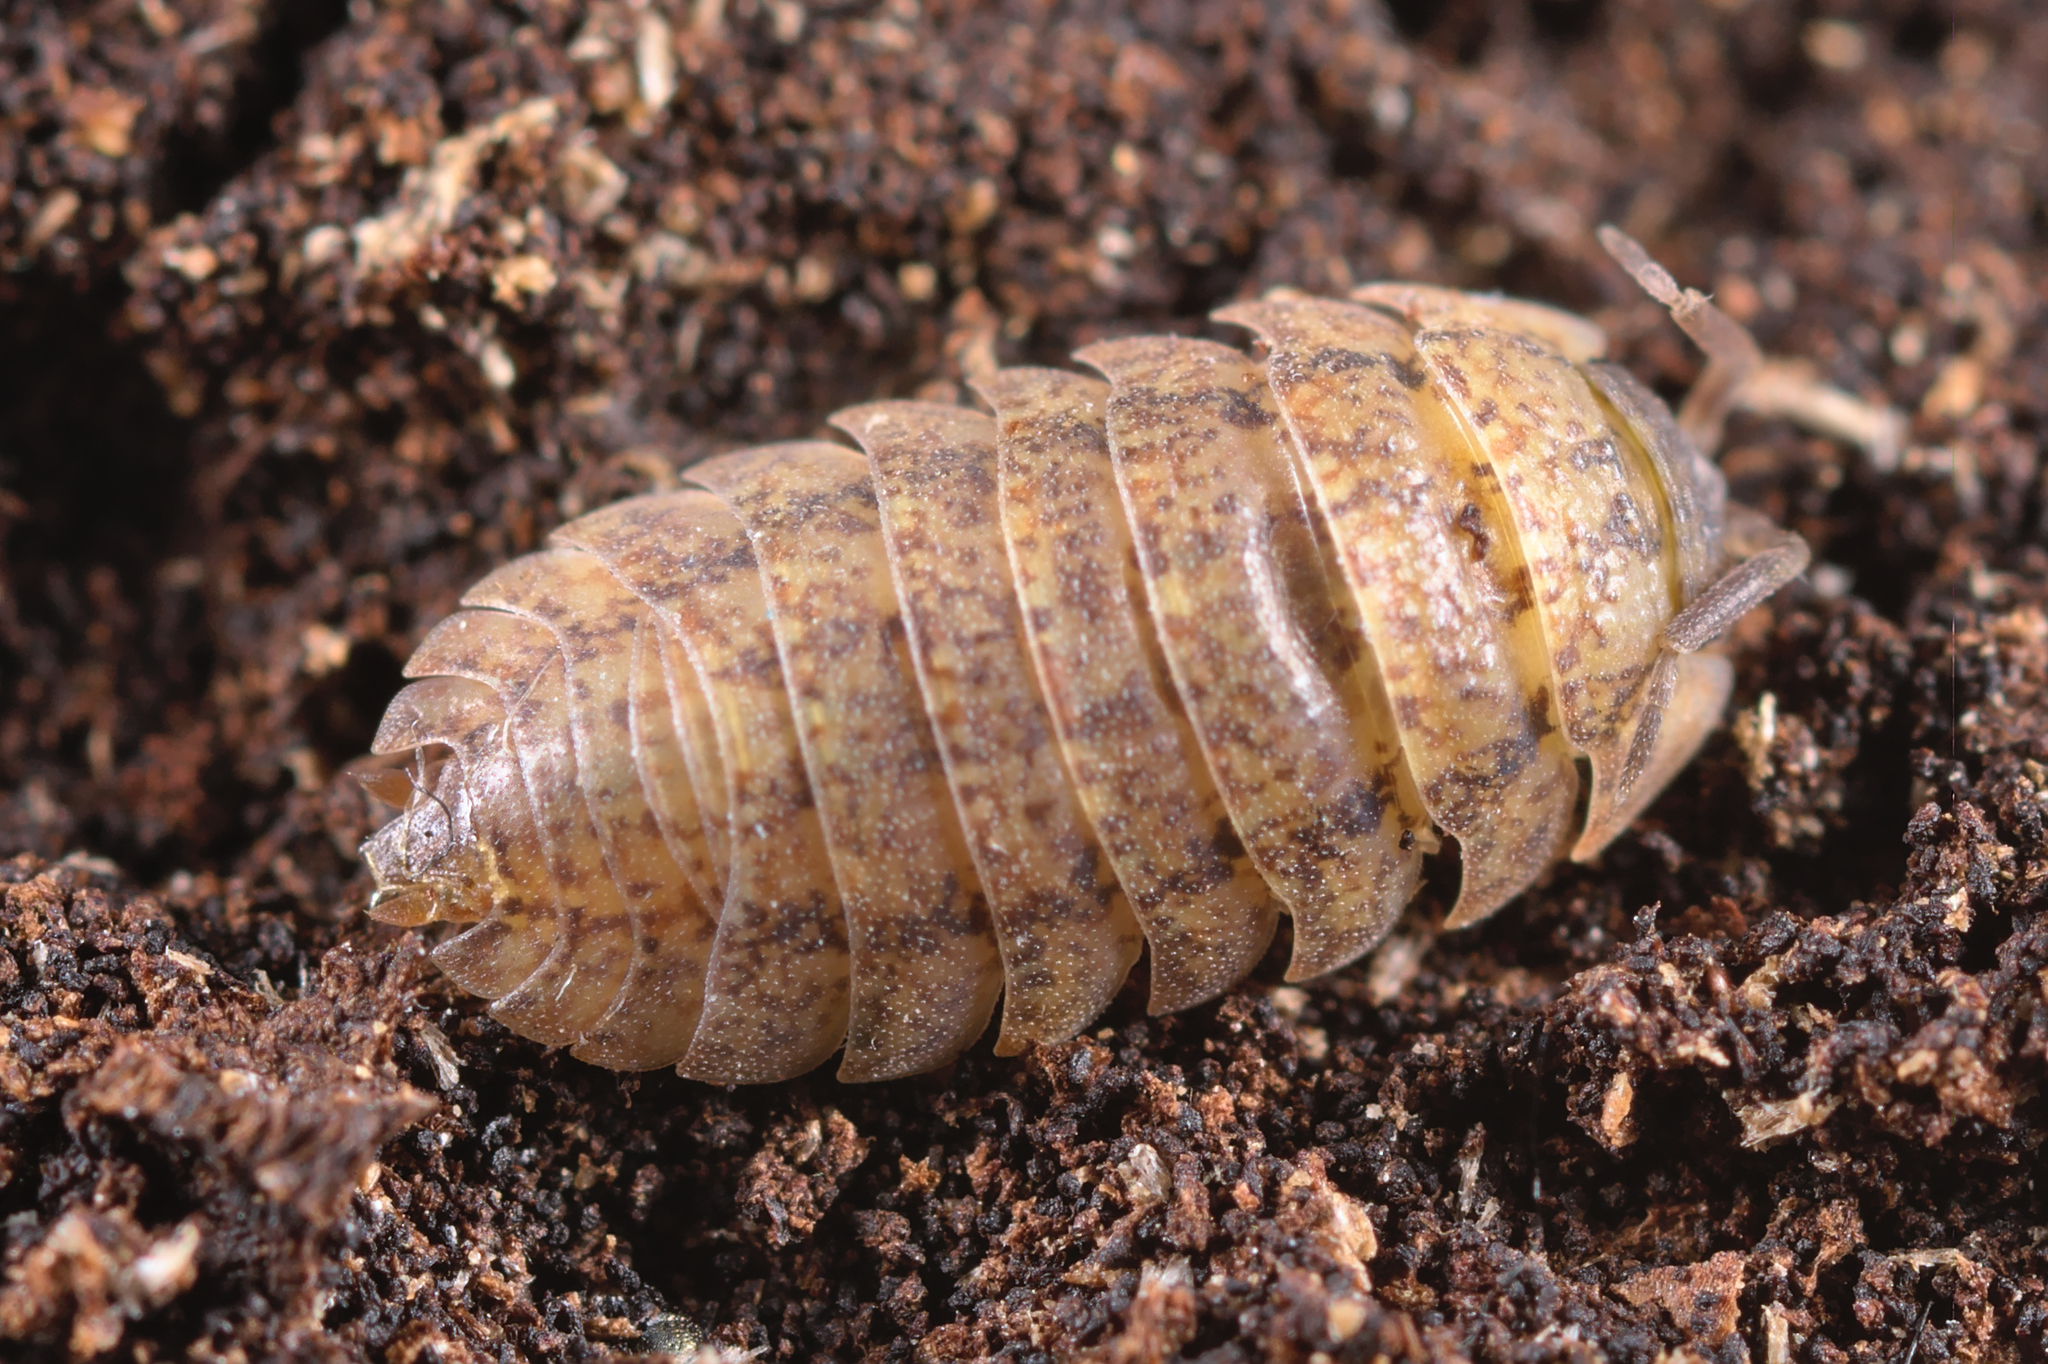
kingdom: Animalia
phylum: Arthropoda
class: Malacostraca
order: Isopoda
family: Trachelipodidae
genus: Porcellium
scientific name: Porcellium conspersum
